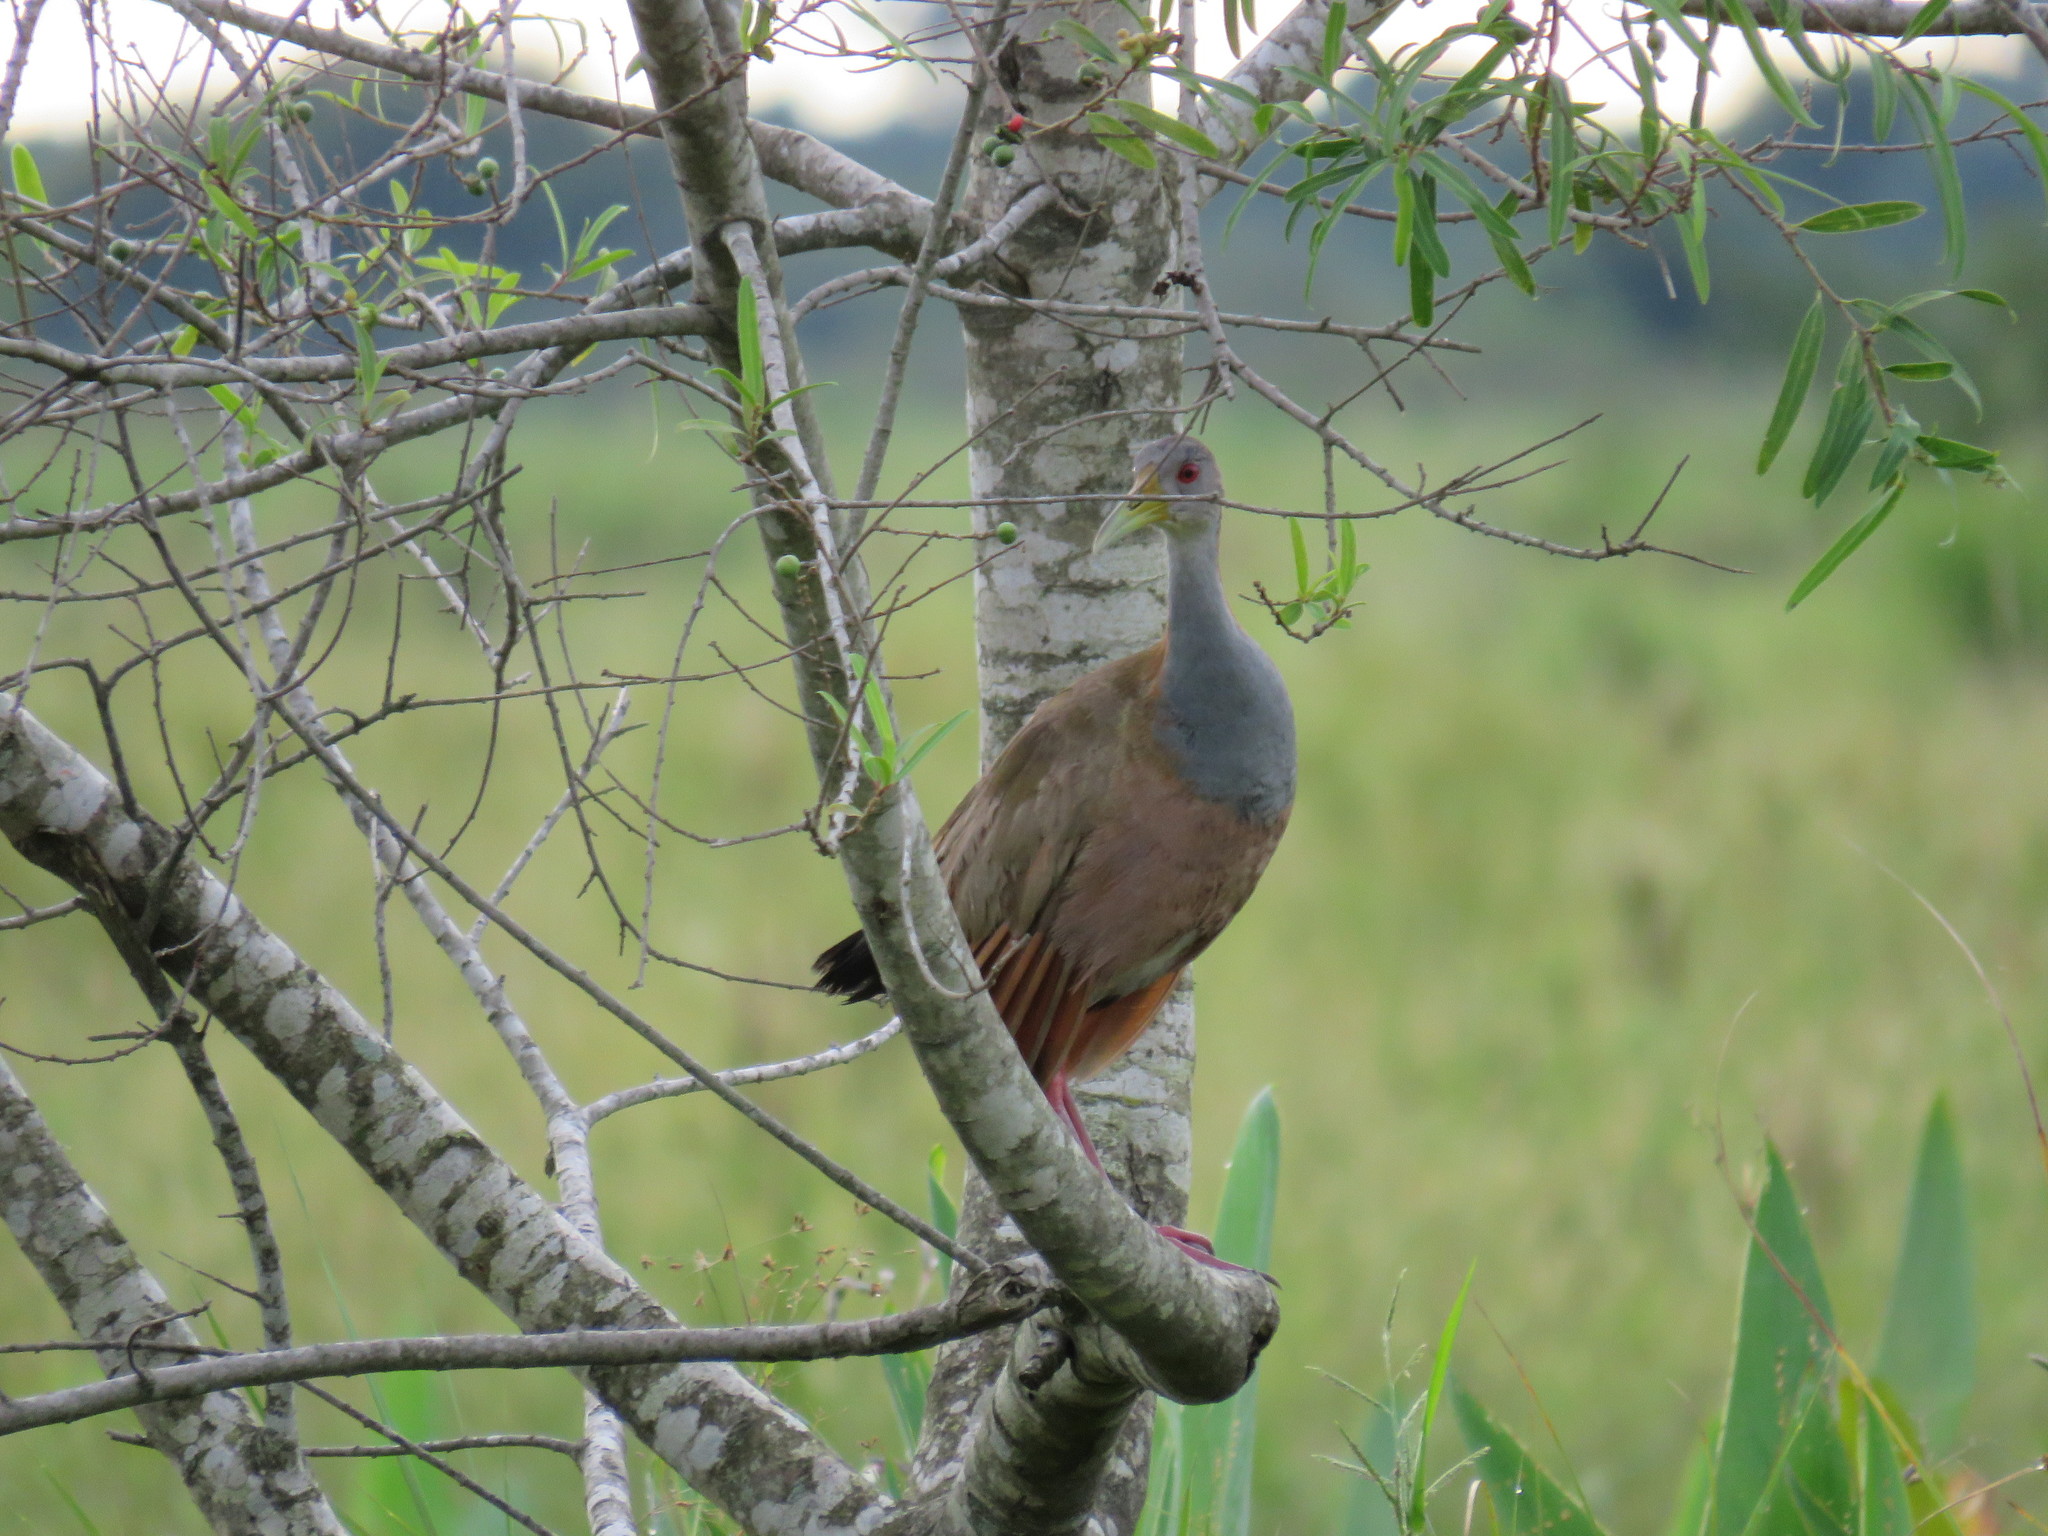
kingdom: Animalia
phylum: Chordata
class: Aves
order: Gruiformes
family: Rallidae
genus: Aramides
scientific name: Aramides ypecaha
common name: Giant wood rail
